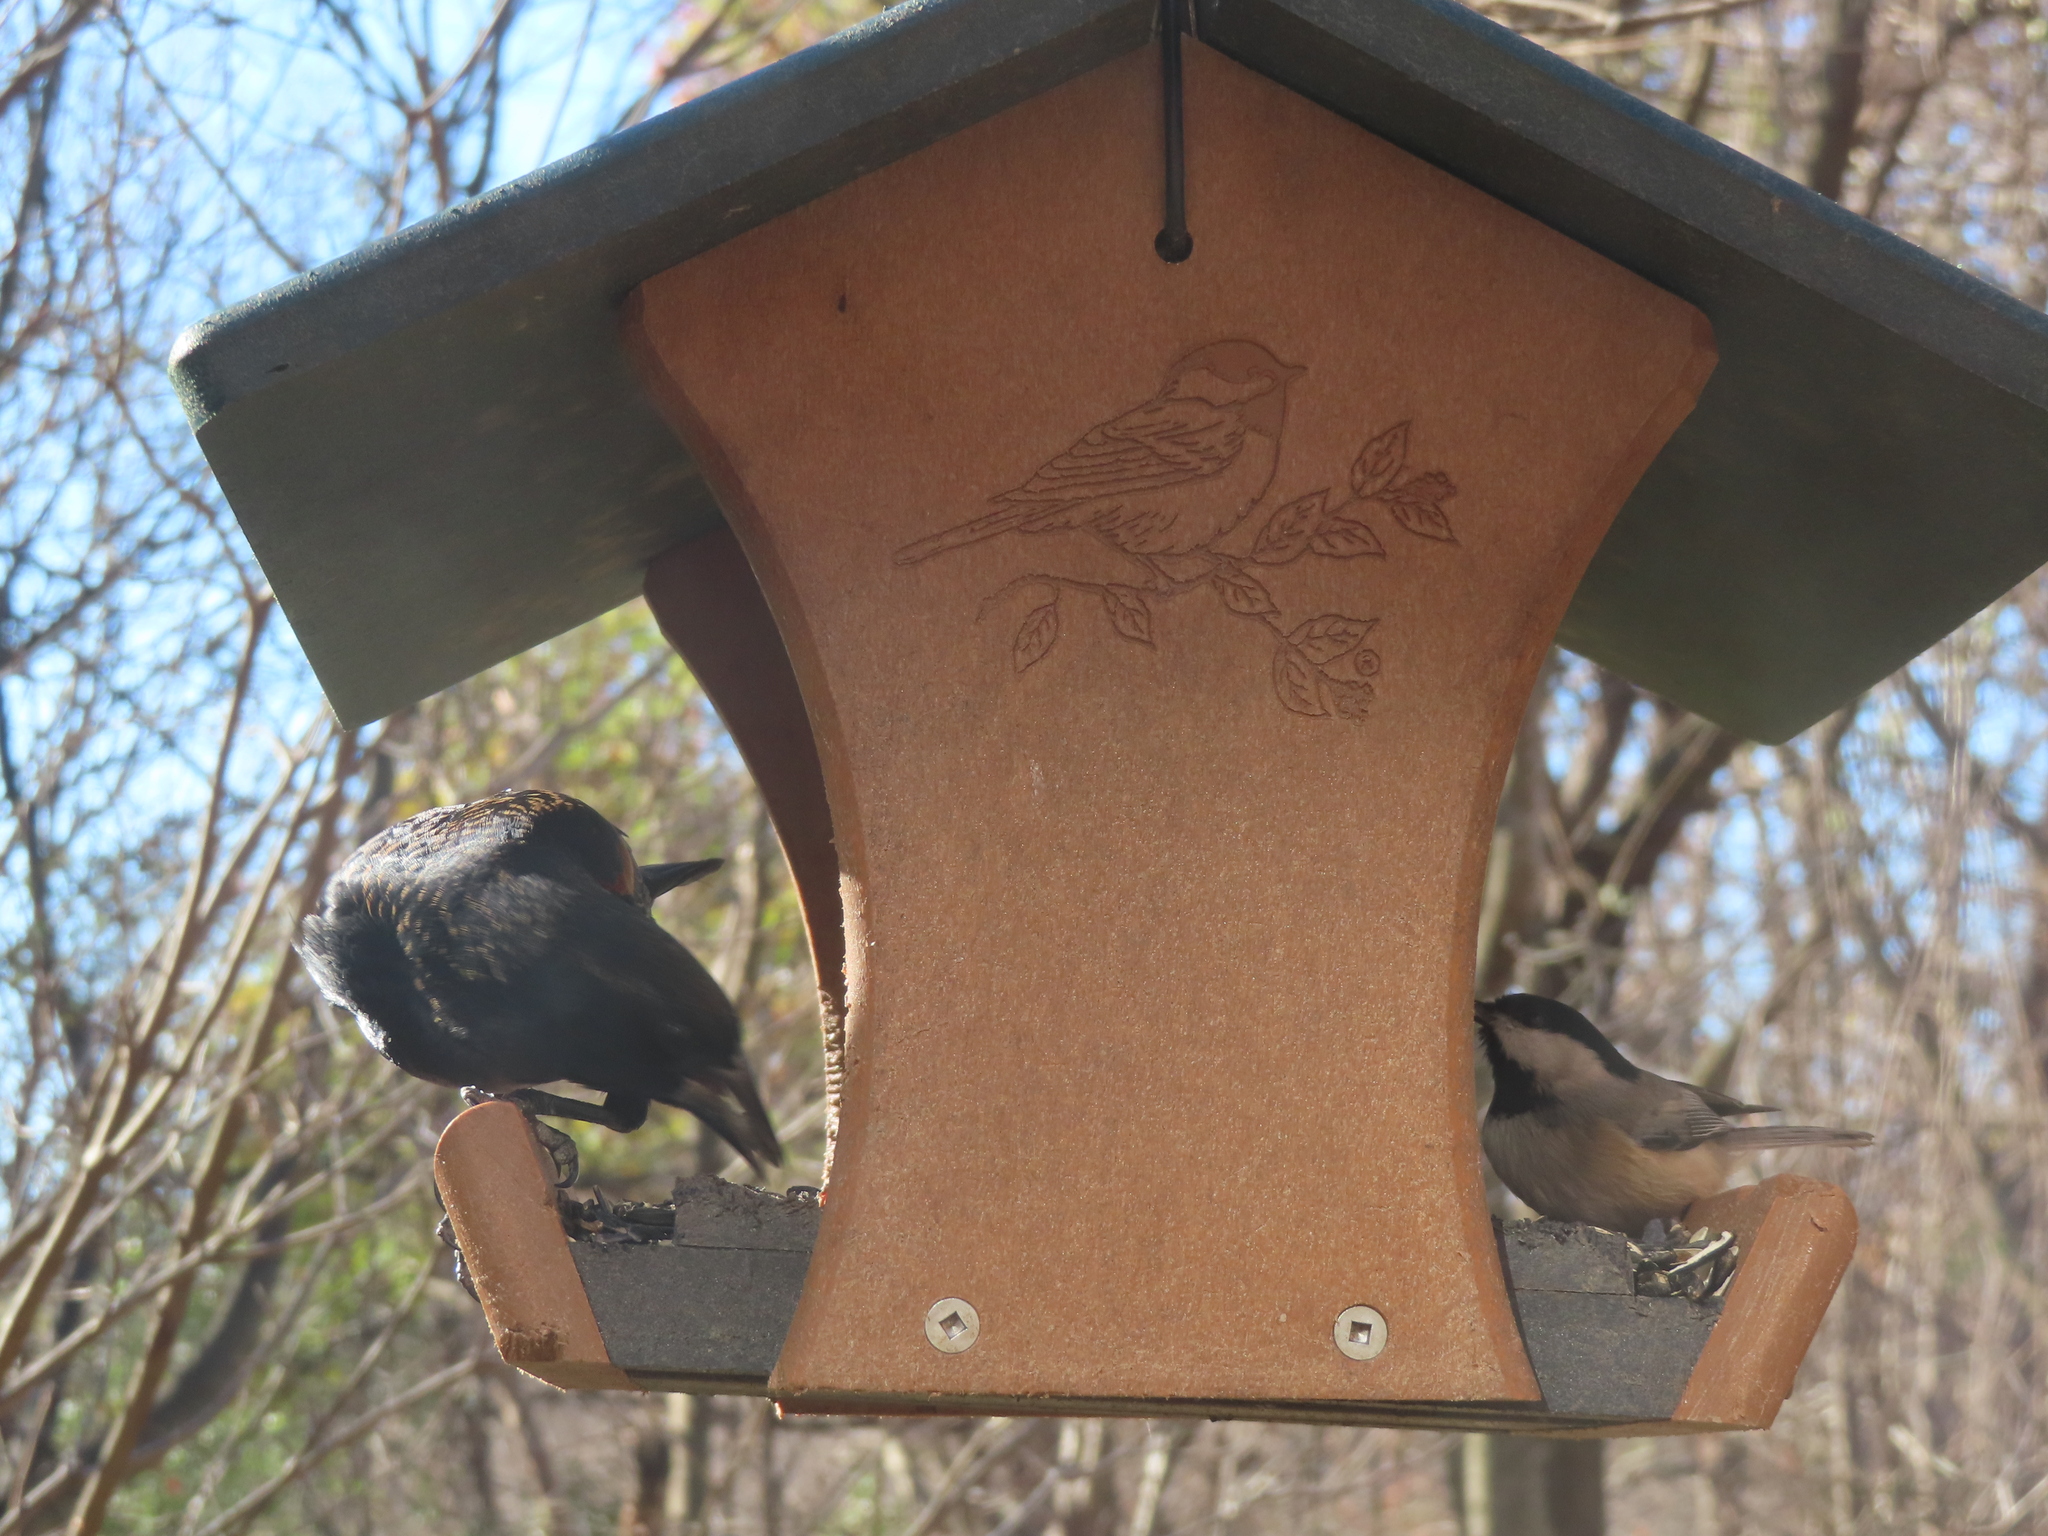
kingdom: Animalia
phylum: Chordata
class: Aves
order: Passeriformes
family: Paridae
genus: Poecile
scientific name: Poecile carolinensis
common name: Carolina chickadee
